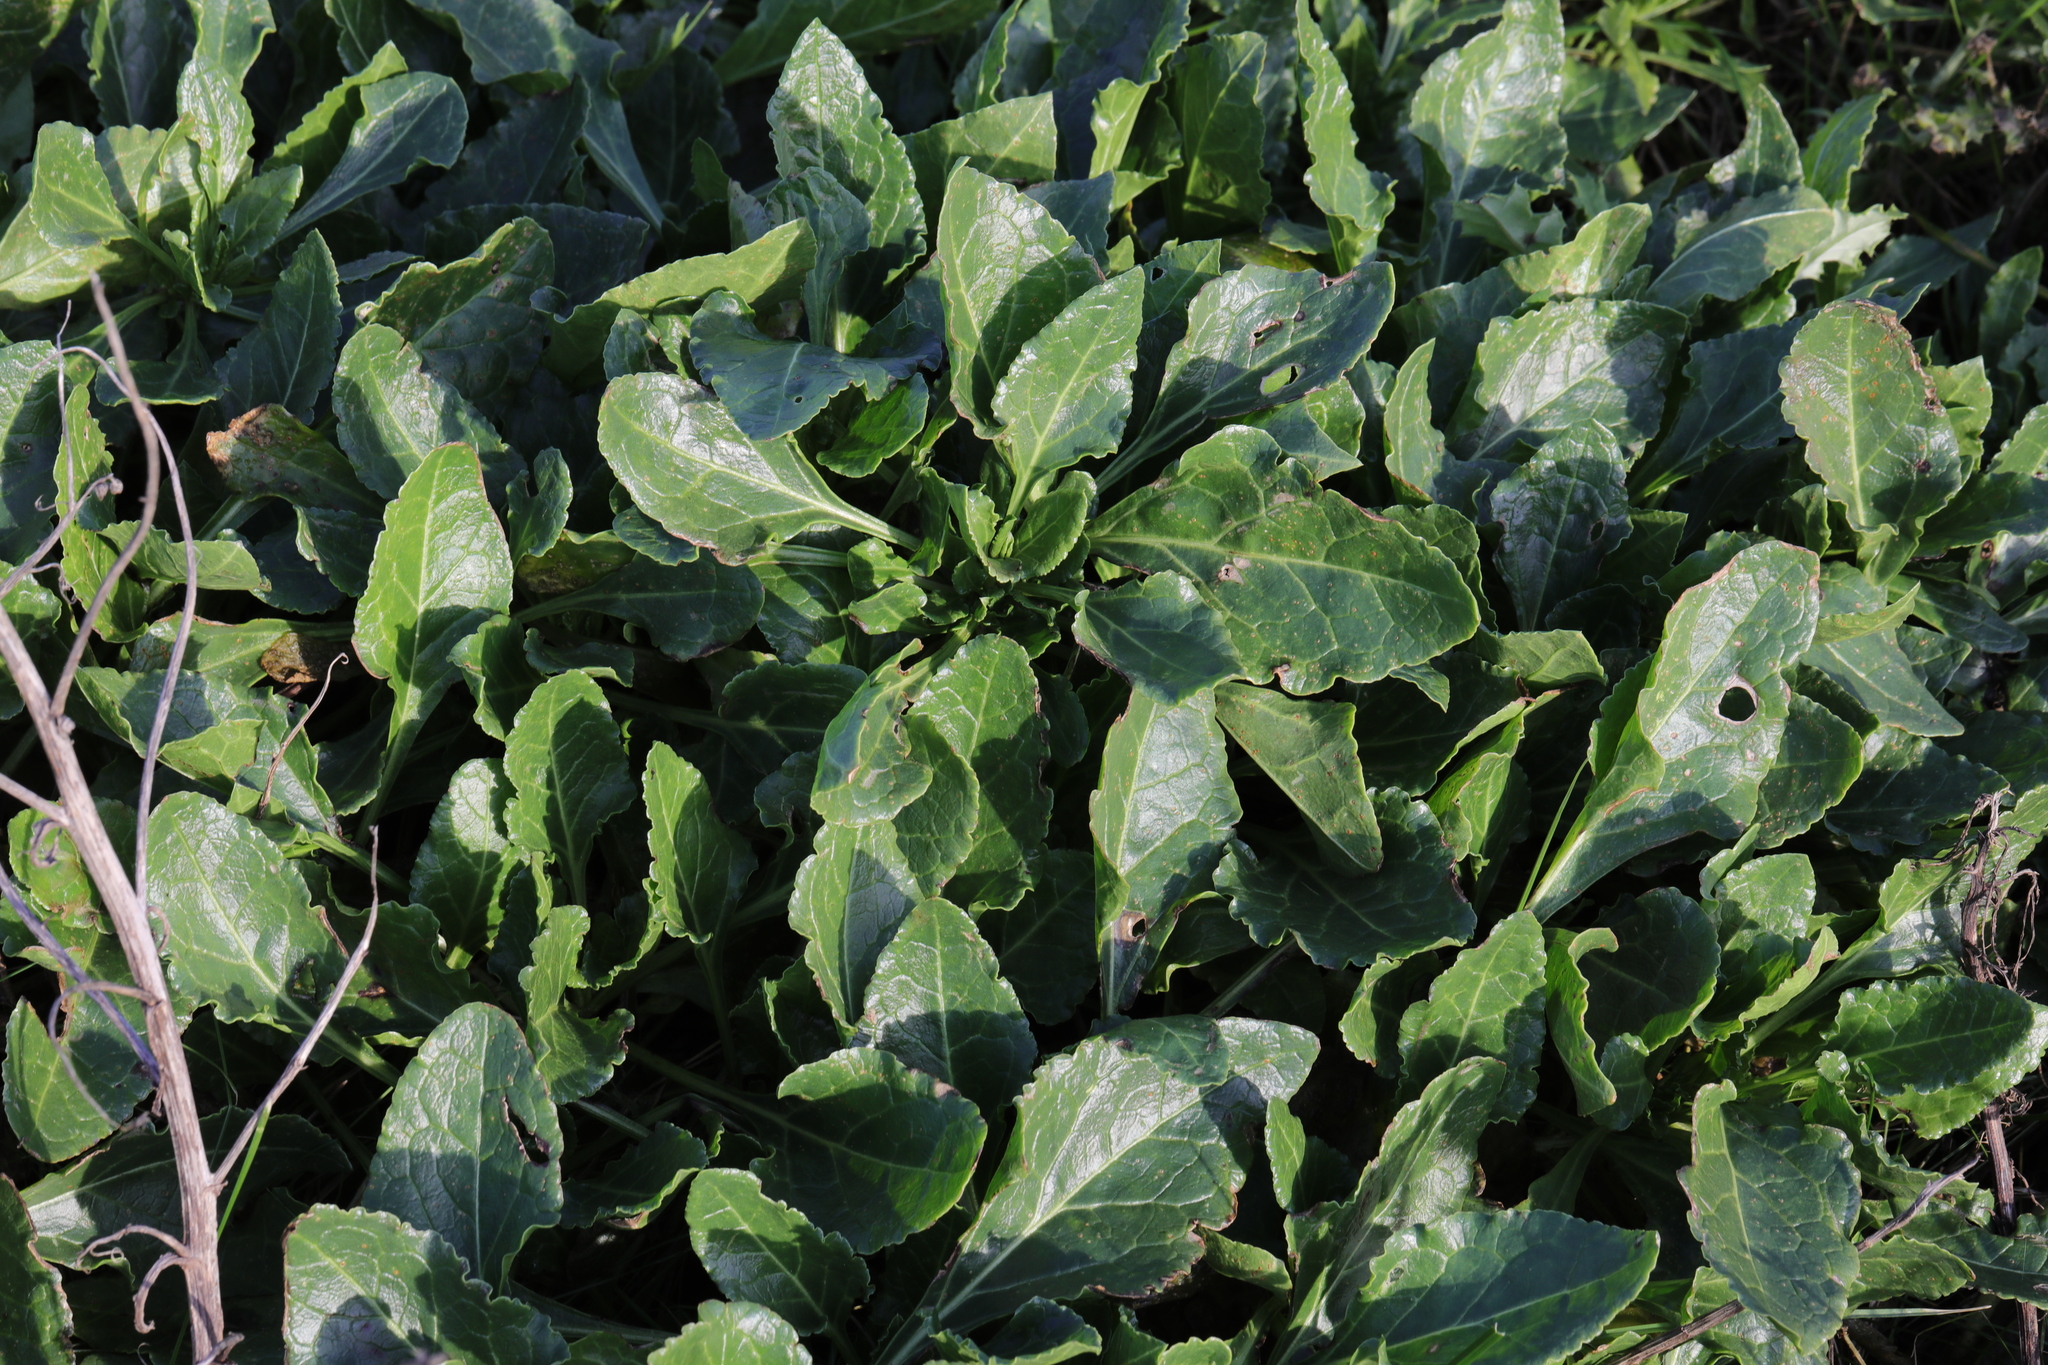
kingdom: Plantae
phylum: Tracheophyta
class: Magnoliopsida
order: Caryophyllales
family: Amaranthaceae
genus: Beta
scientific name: Beta vulgaris
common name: Beet
